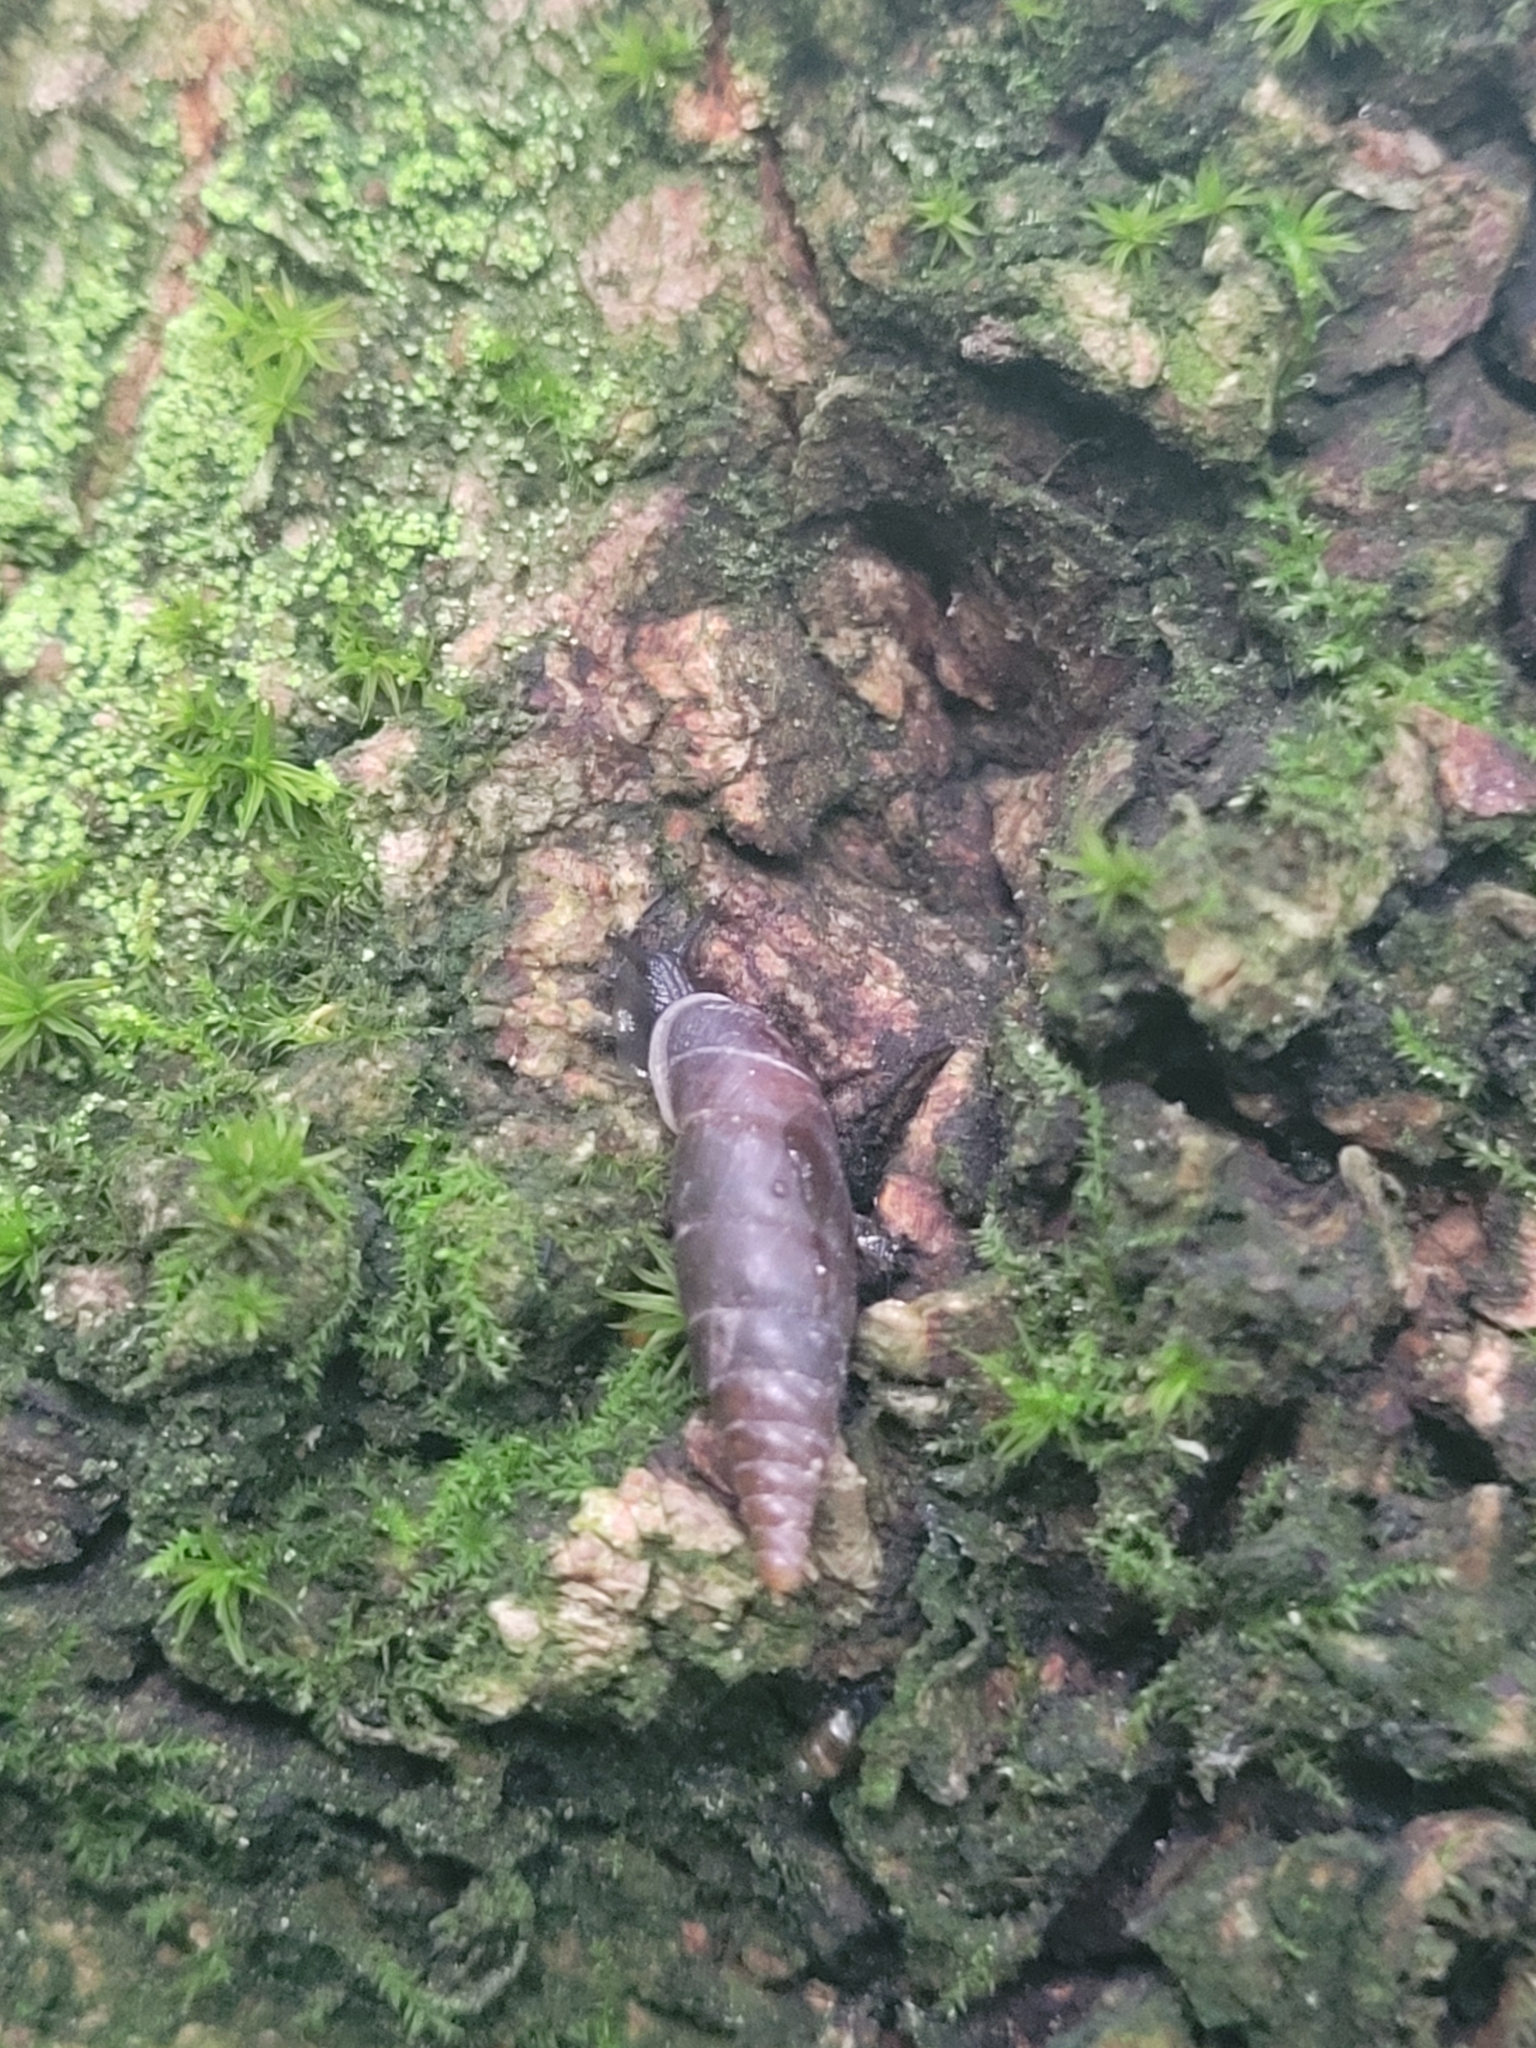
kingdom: Animalia
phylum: Mollusca
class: Gastropoda
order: Stylommatophora
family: Clausiliidae
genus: Cochlodina
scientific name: Cochlodina laminata
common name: Plaited door snail
